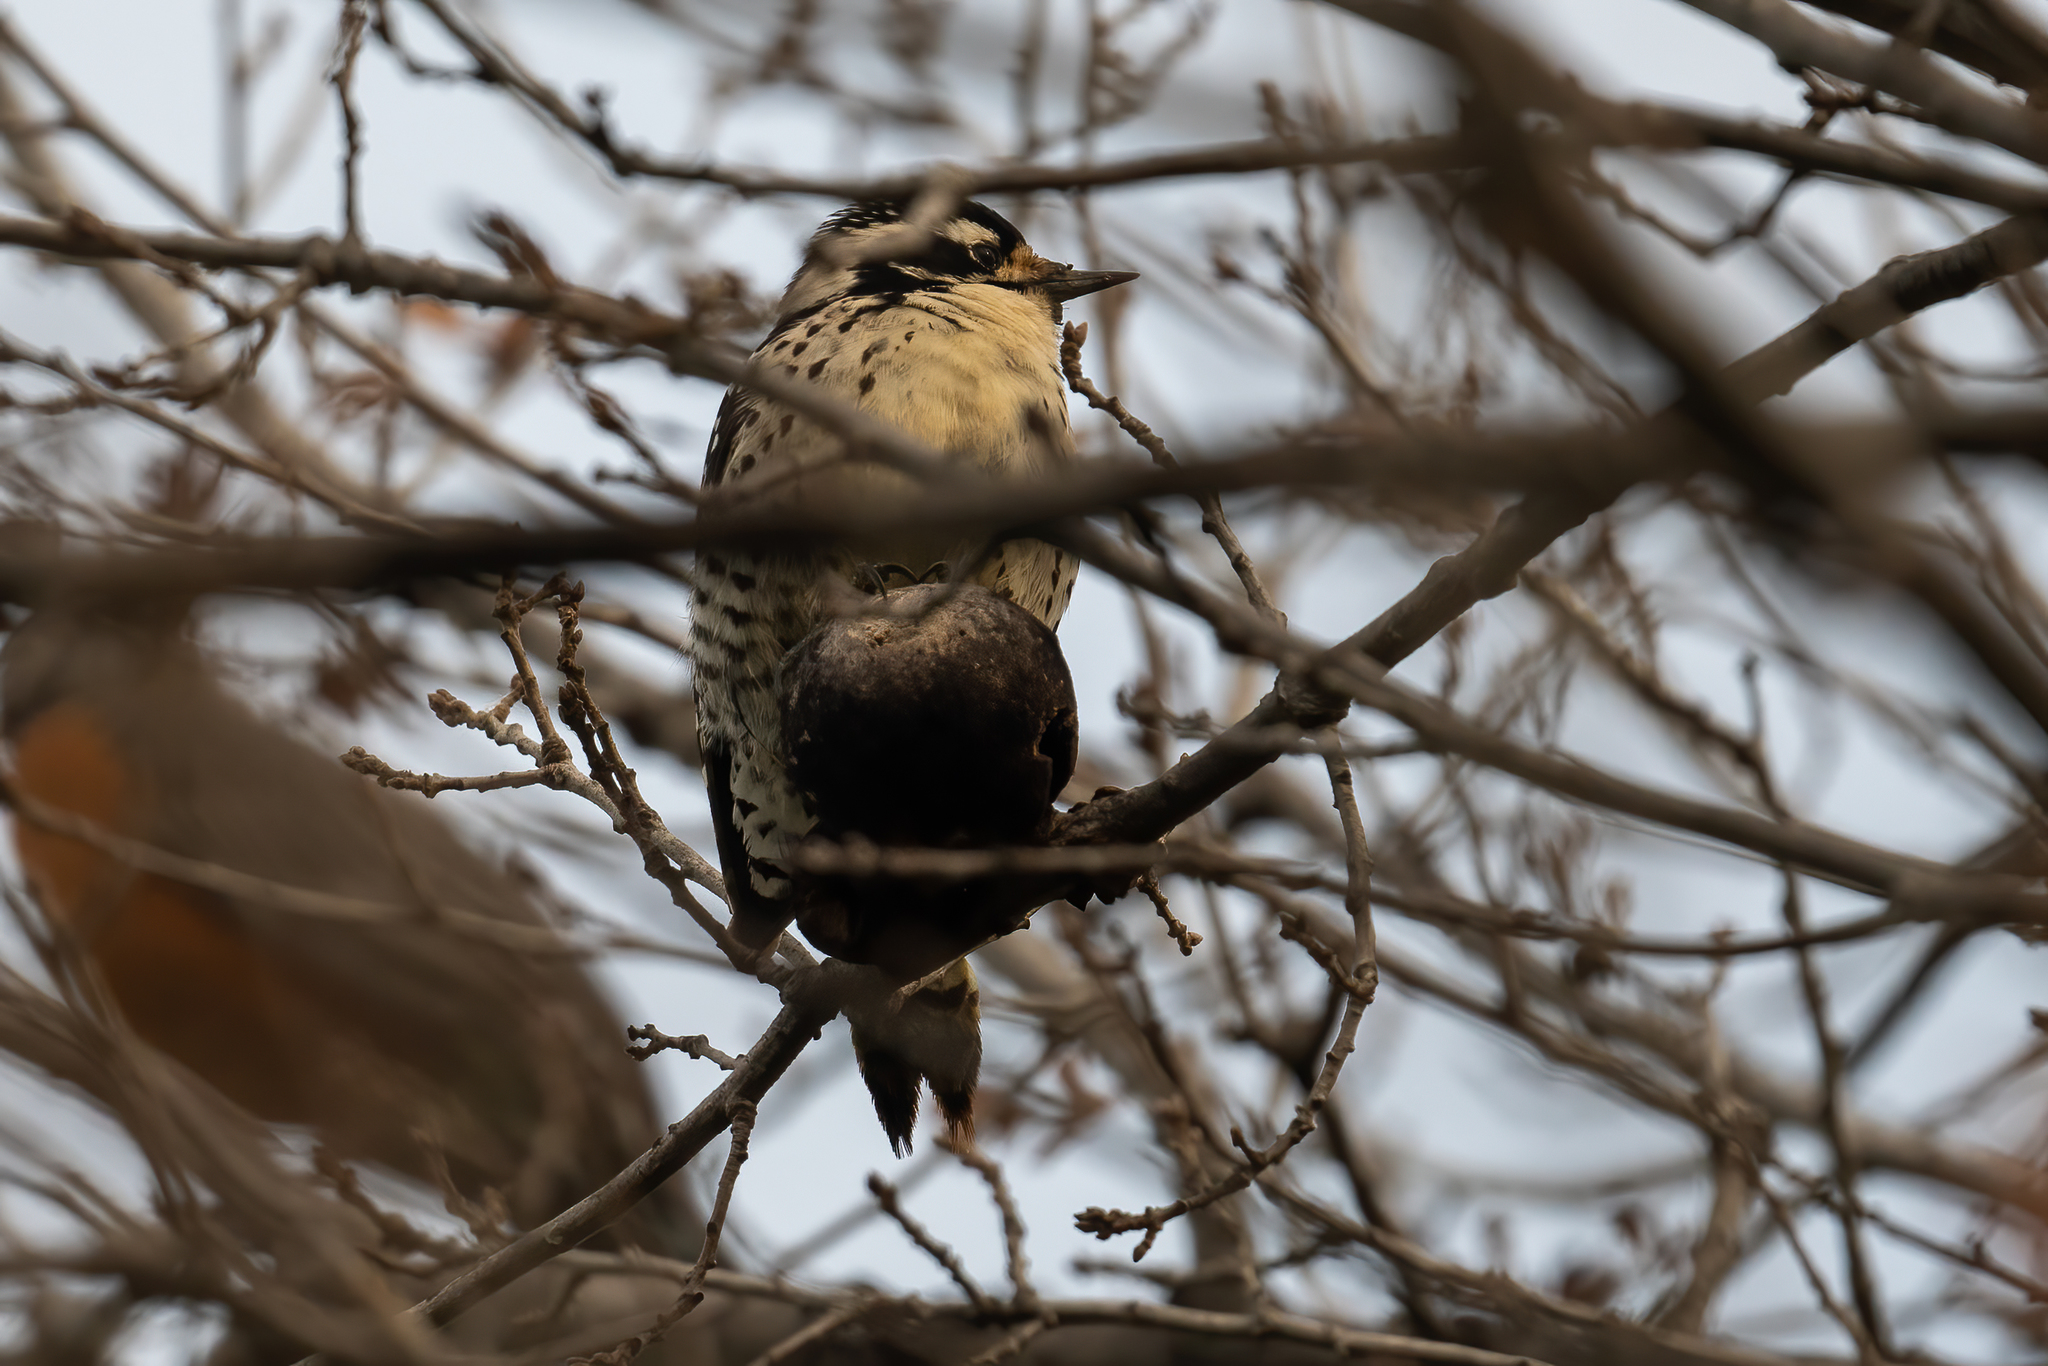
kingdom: Animalia
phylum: Chordata
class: Aves
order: Piciformes
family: Picidae
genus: Dryobates
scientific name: Dryobates nuttallii
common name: Nuttall's woodpecker
